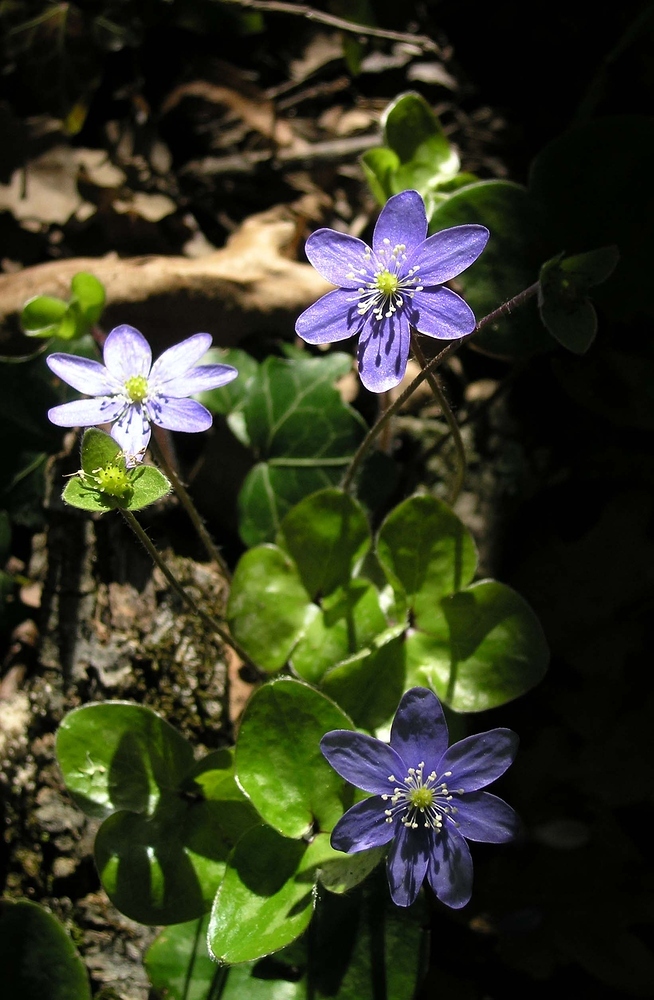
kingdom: Plantae
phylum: Tracheophyta
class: Magnoliopsida
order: Ranunculales
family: Ranunculaceae
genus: Hepatica
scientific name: Hepatica nobilis
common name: Liverleaf
